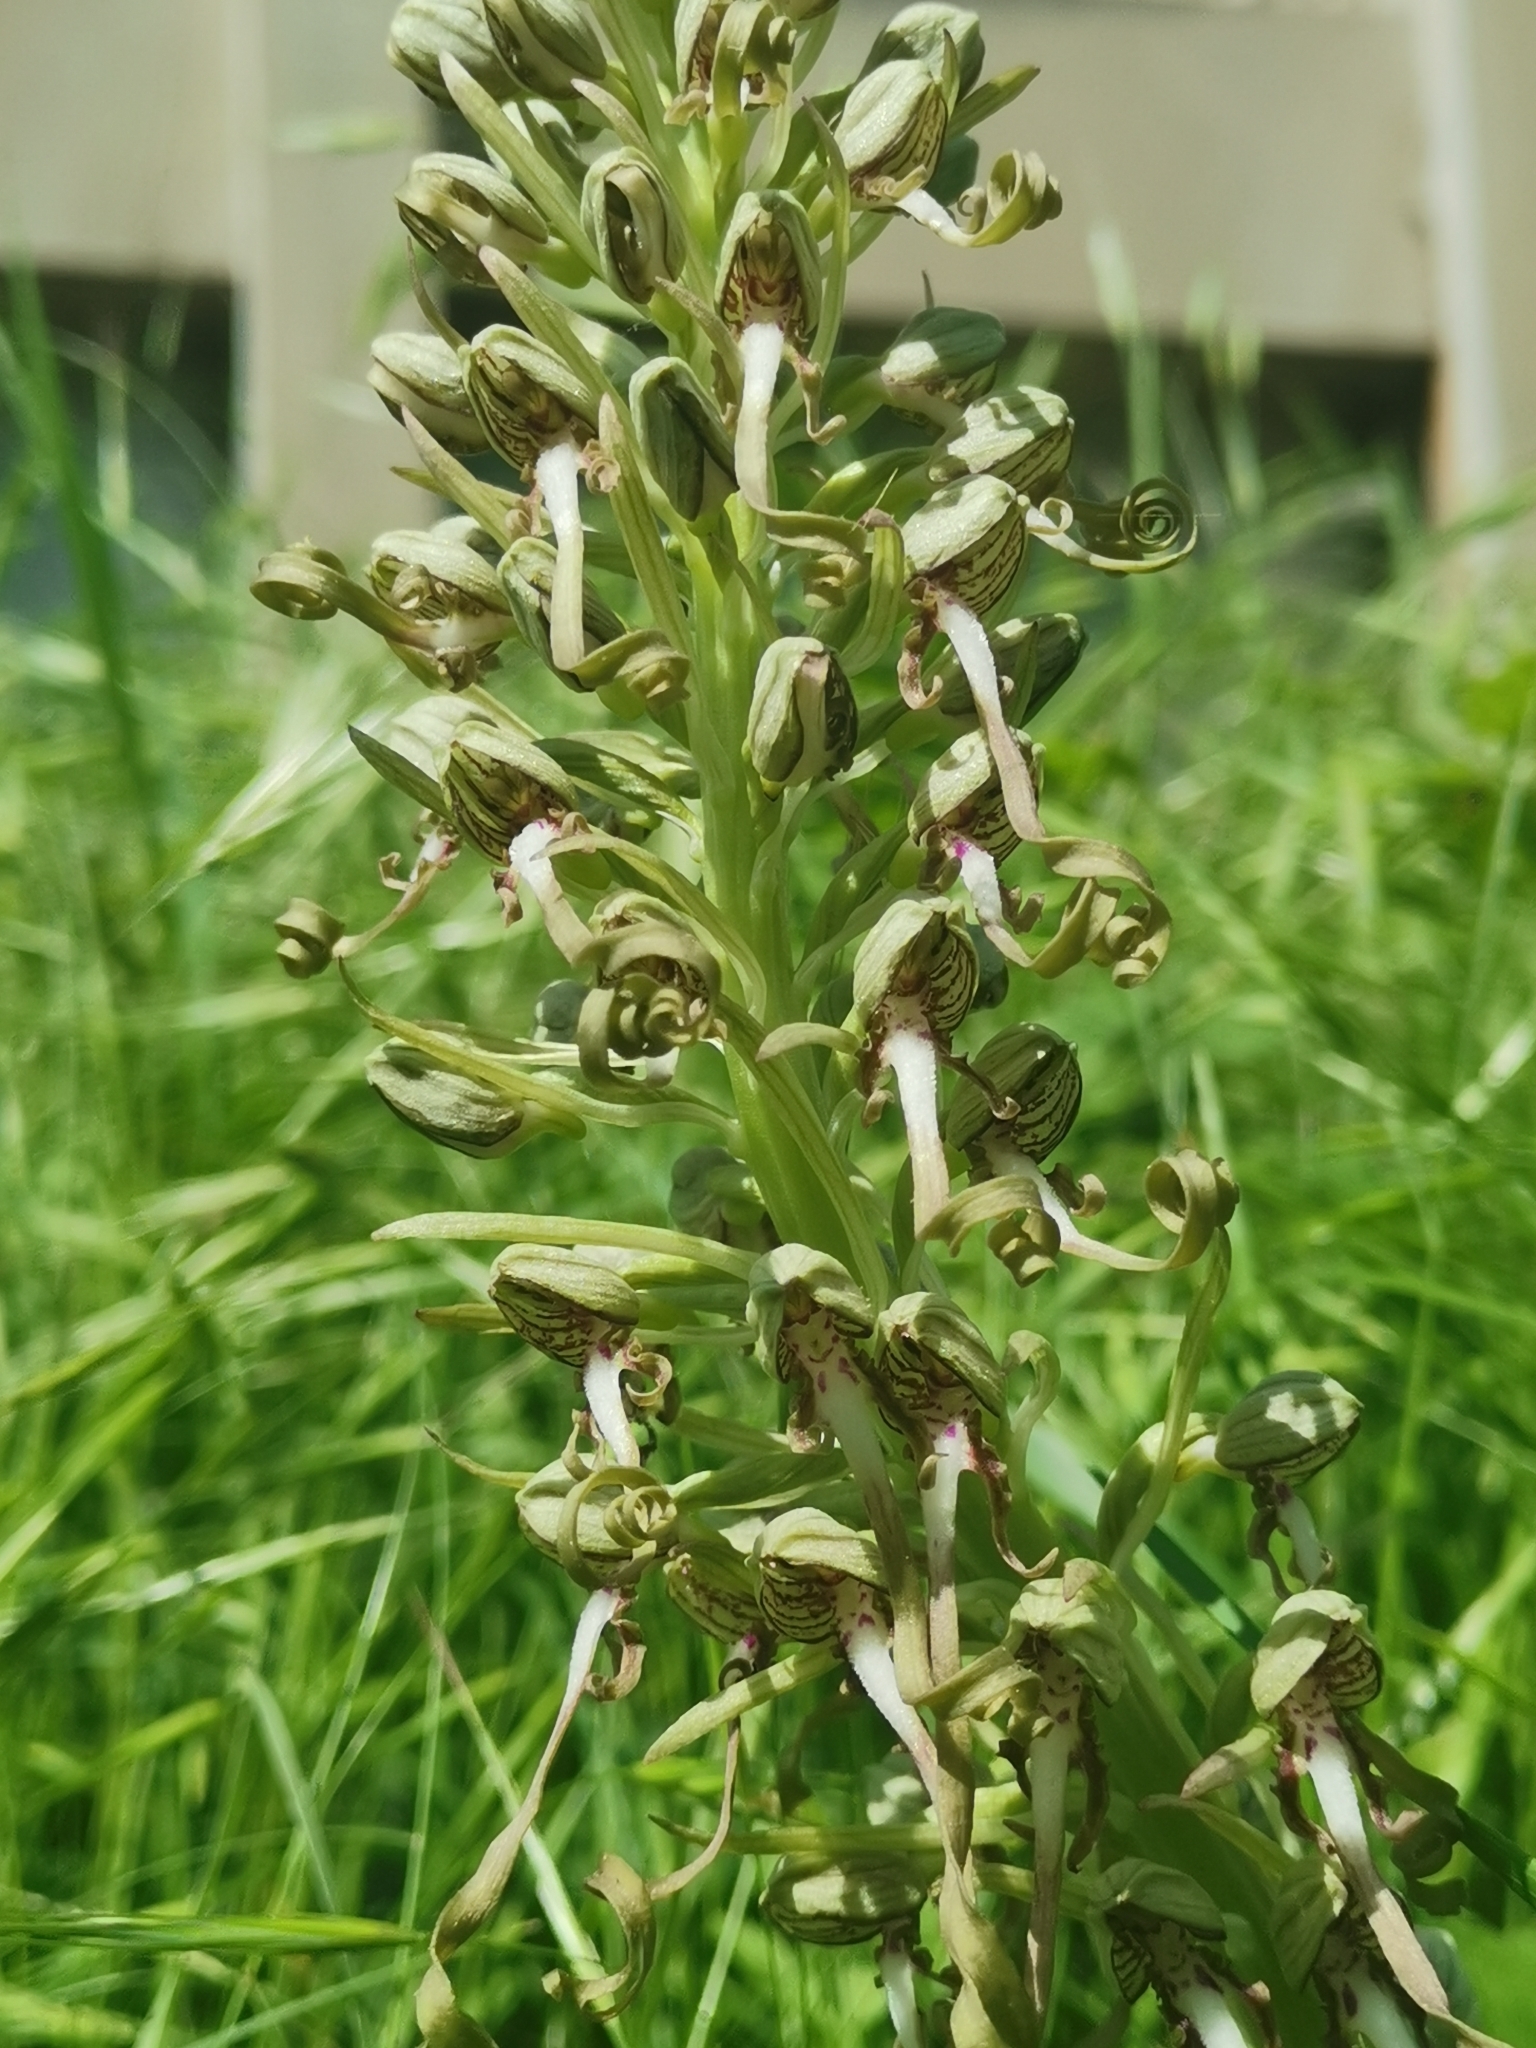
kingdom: Plantae
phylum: Tracheophyta
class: Liliopsida
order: Asparagales
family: Orchidaceae
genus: Himantoglossum
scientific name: Himantoglossum hircinum
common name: Lizard orchid
